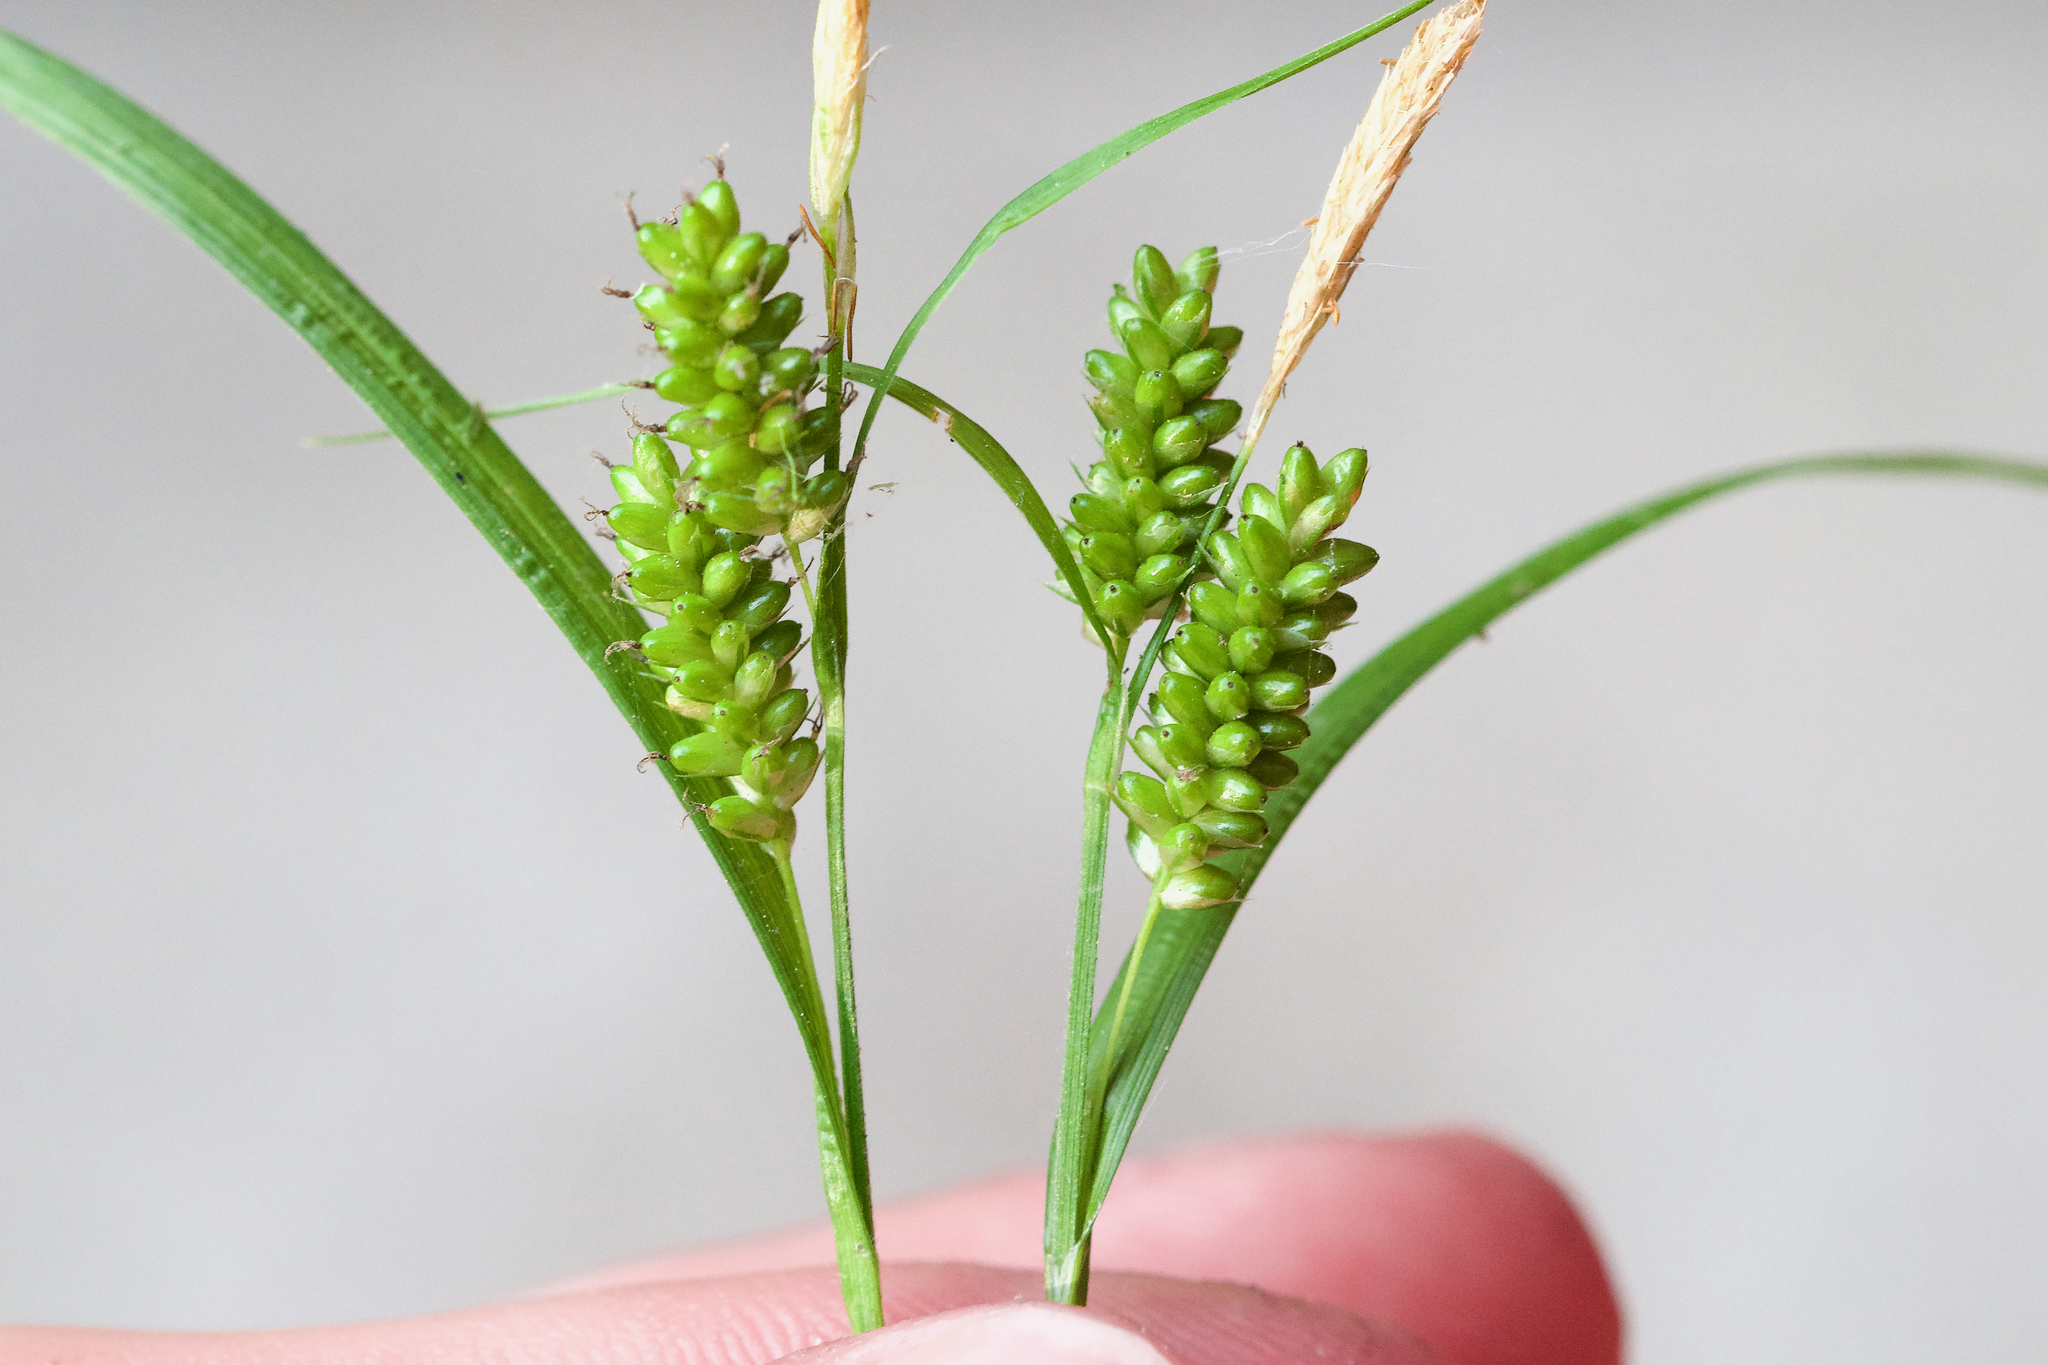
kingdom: Plantae
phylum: Tracheophyta
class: Liliopsida
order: Poales
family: Cyperaceae
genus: Carex
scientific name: Carex pallescens
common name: Pale sedge
